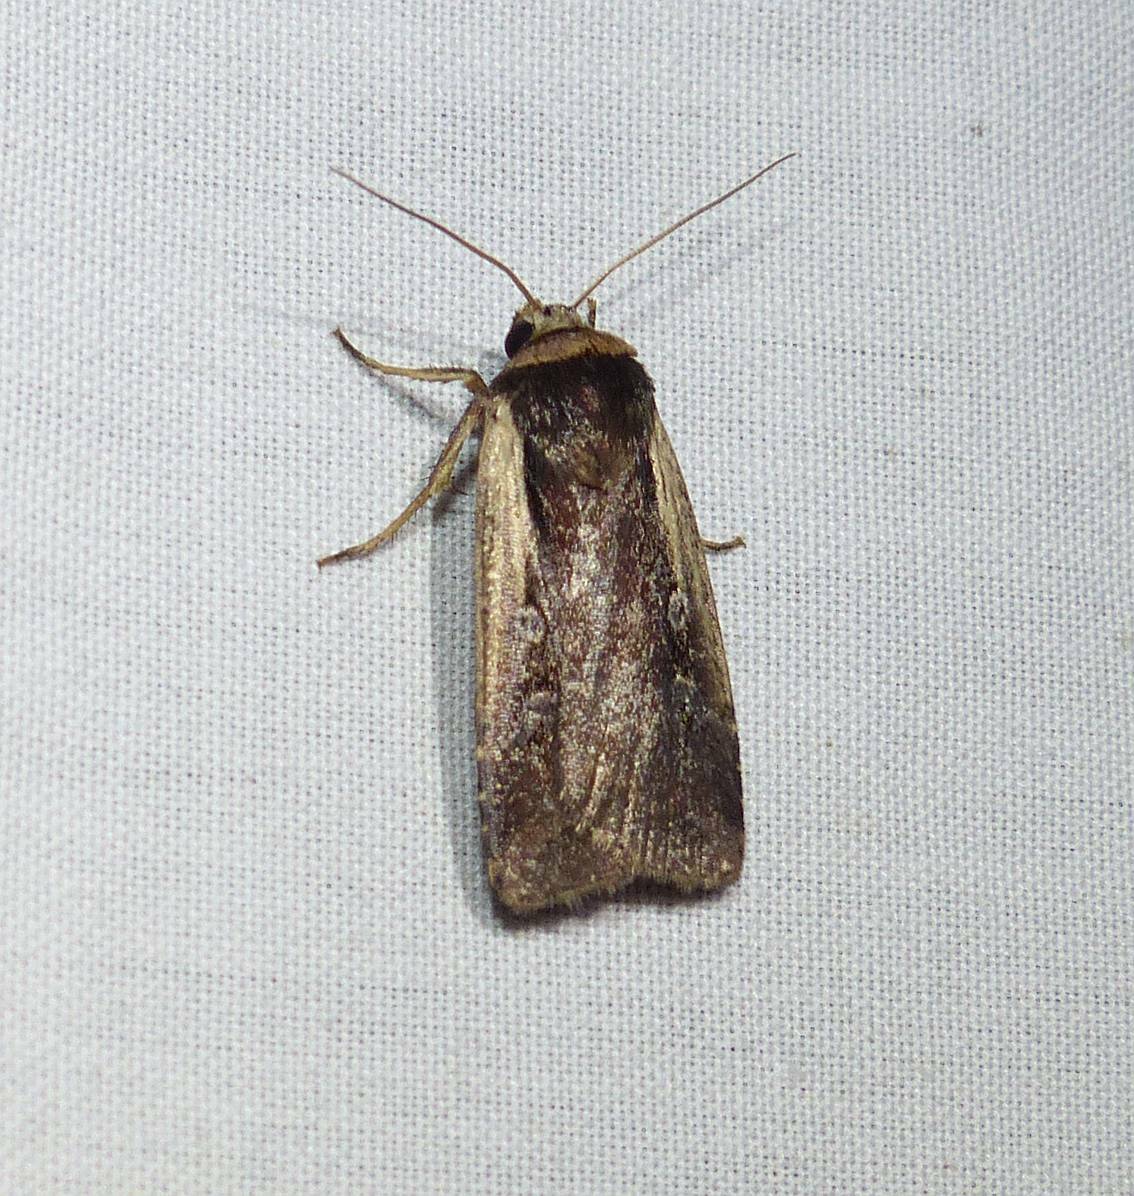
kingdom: Animalia
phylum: Arthropoda
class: Insecta
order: Lepidoptera
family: Noctuidae
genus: Ochropleura
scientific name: Ochropleura implecta
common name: Flame-shouldered dart
